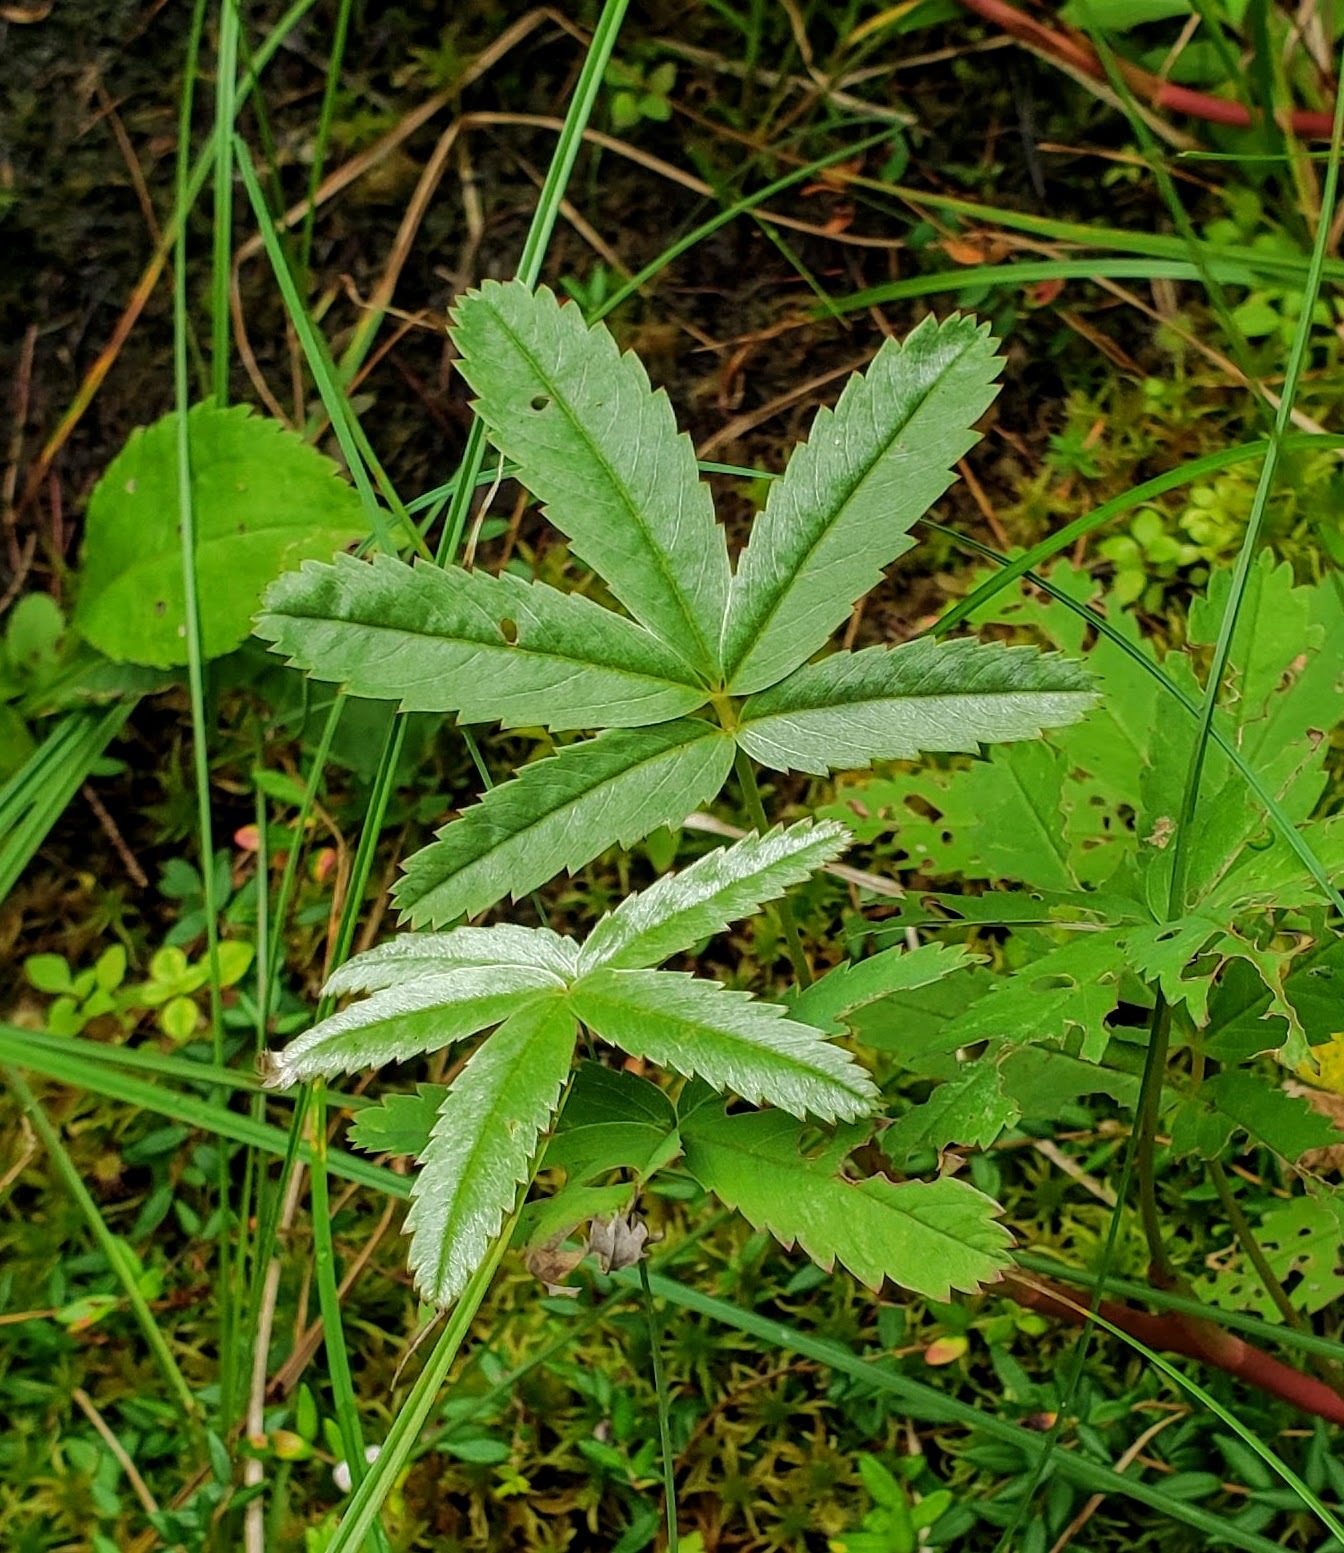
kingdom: Plantae
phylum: Tracheophyta
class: Magnoliopsida
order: Rosales
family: Rosaceae
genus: Comarum
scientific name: Comarum palustre
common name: Marsh cinquefoil
